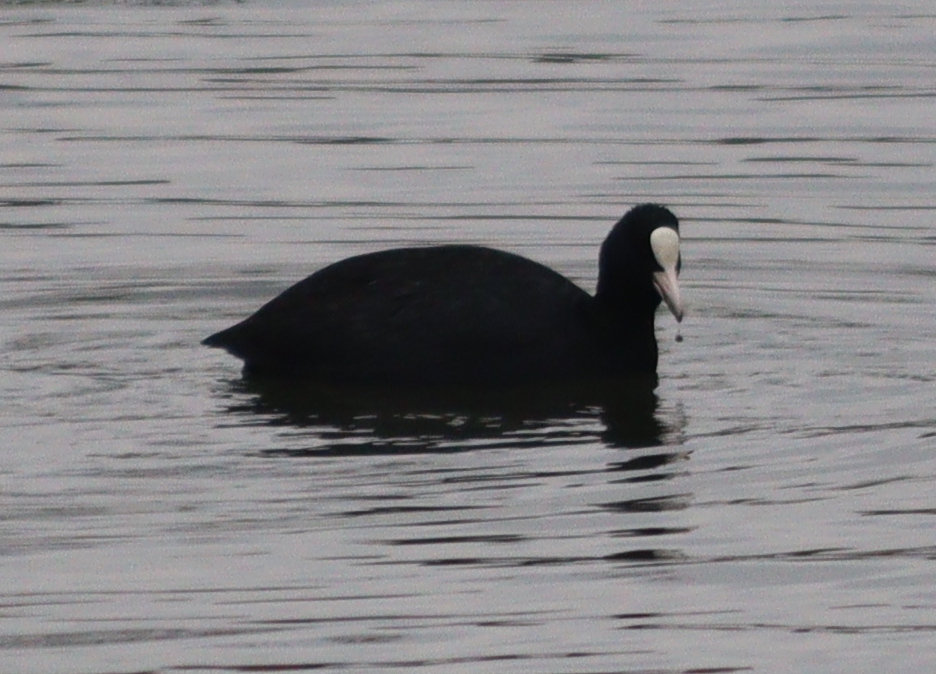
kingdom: Animalia
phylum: Chordata
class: Aves
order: Gruiformes
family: Rallidae
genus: Fulica
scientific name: Fulica atra
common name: Eurasian coot
